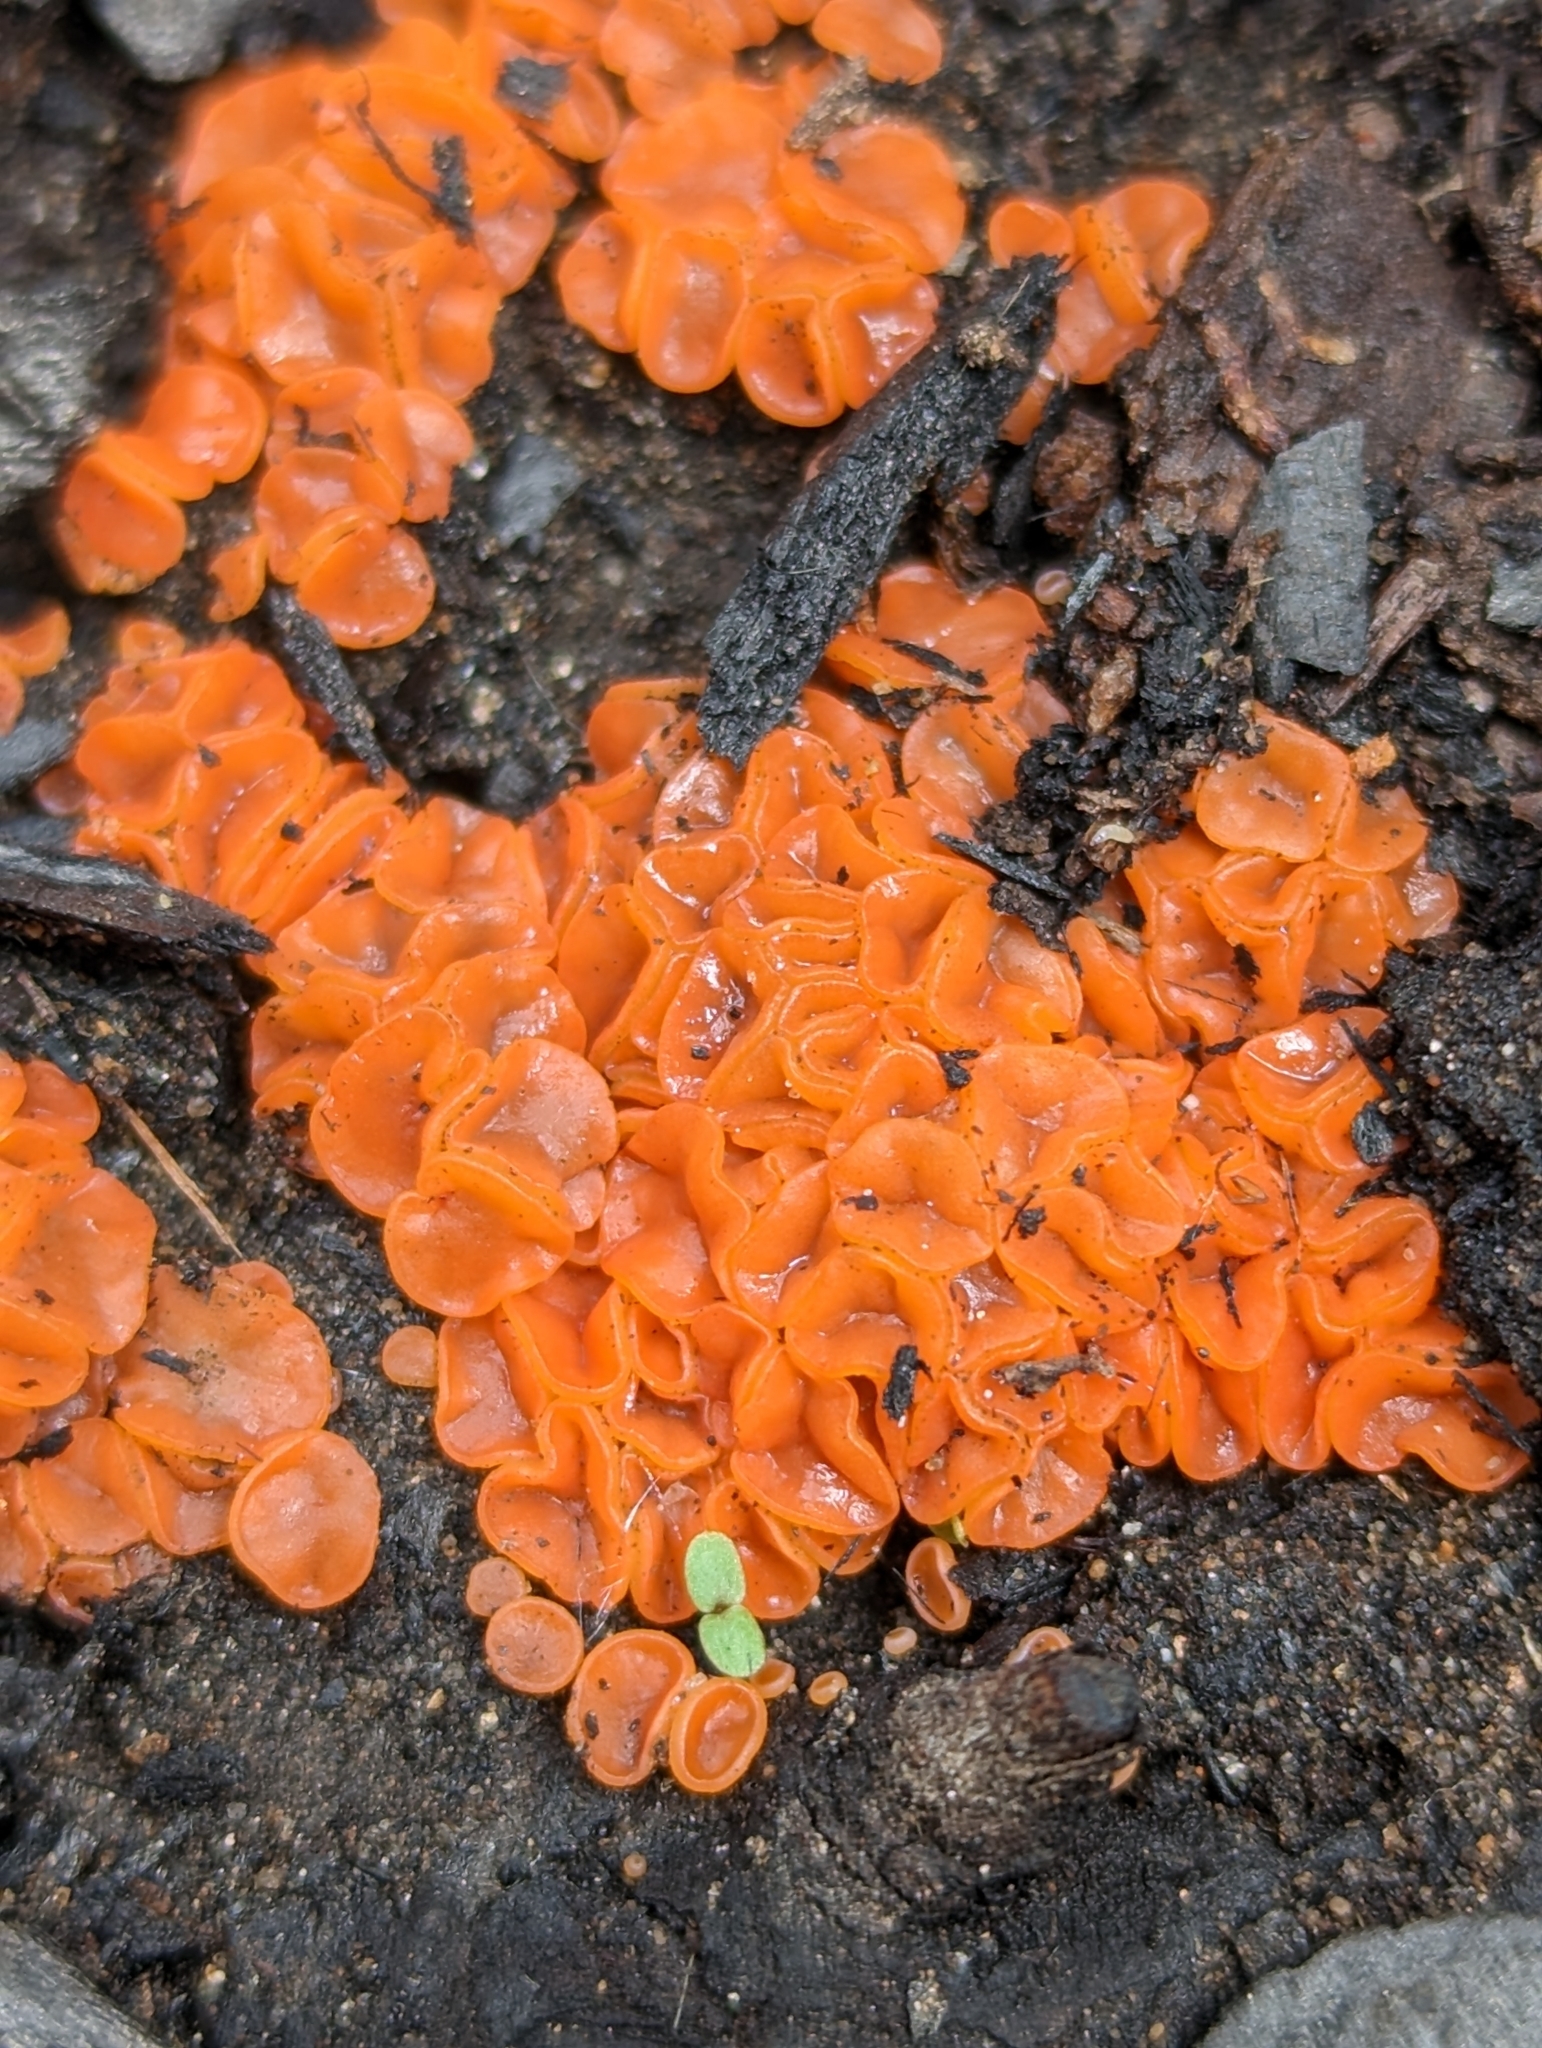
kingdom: Fungi
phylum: Ascomycota
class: Pezizomycetes
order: Pezizales
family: Pyronemataceae
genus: Anthracobia
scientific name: Anthracobia melaloma
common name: Charcoal eyelash
